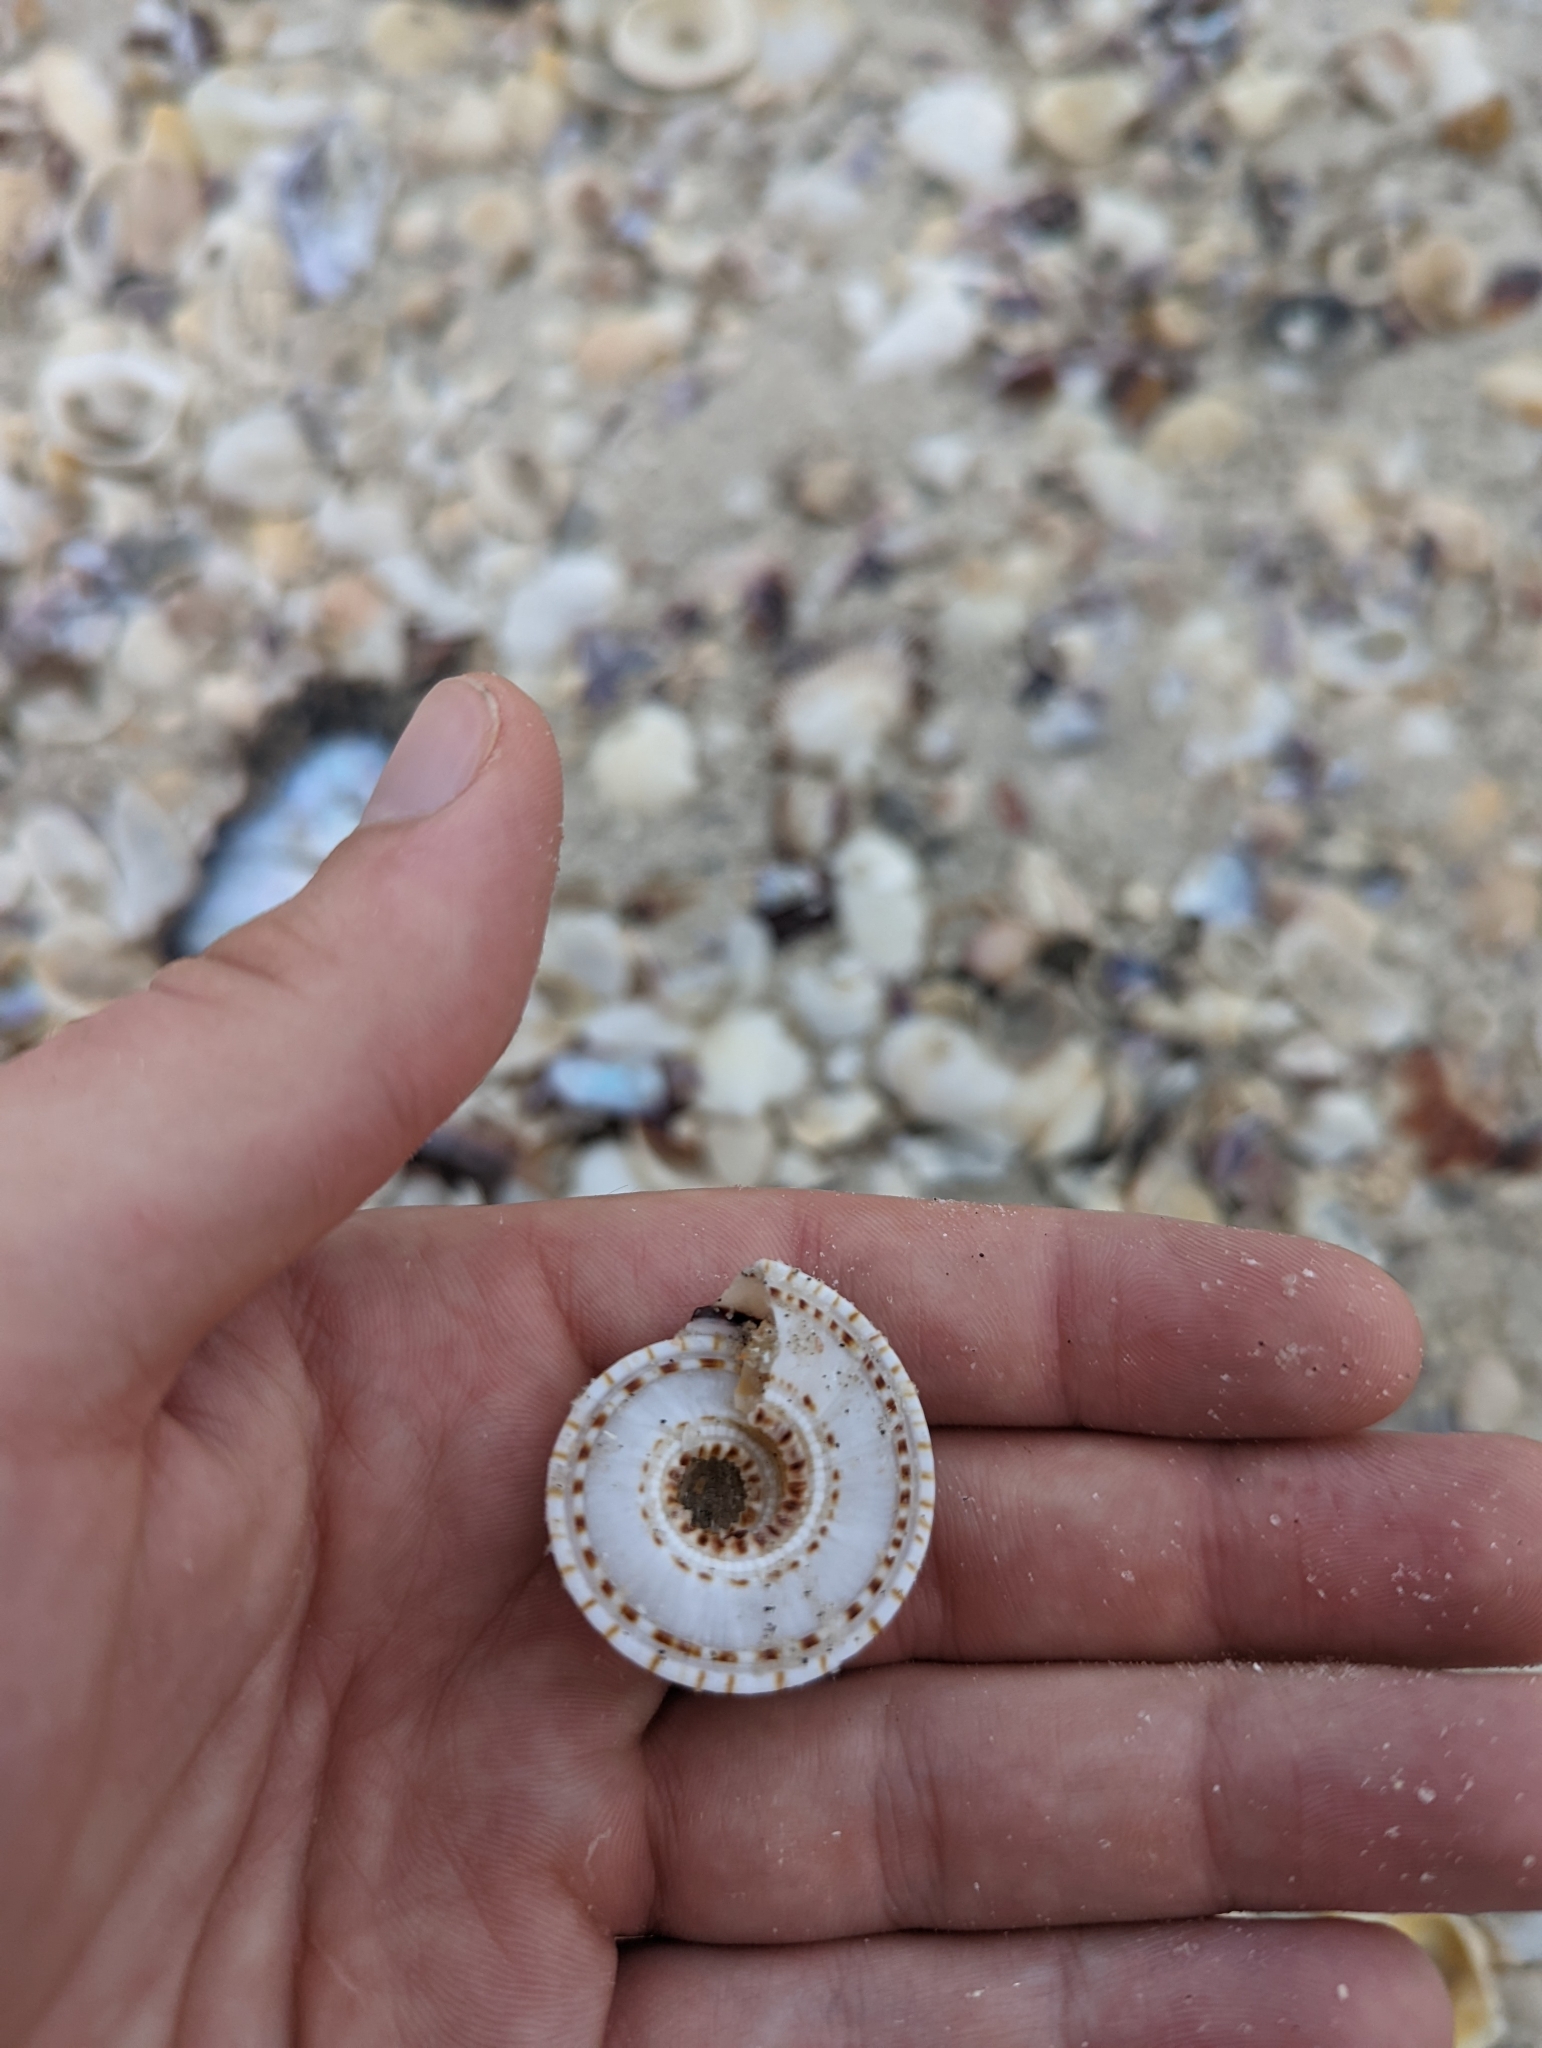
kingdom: Animalia
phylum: Mollusca
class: Gastropoda
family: Architectonicidae
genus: Architectonica
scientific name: Architectonica perspectiva
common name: European sundial snail
